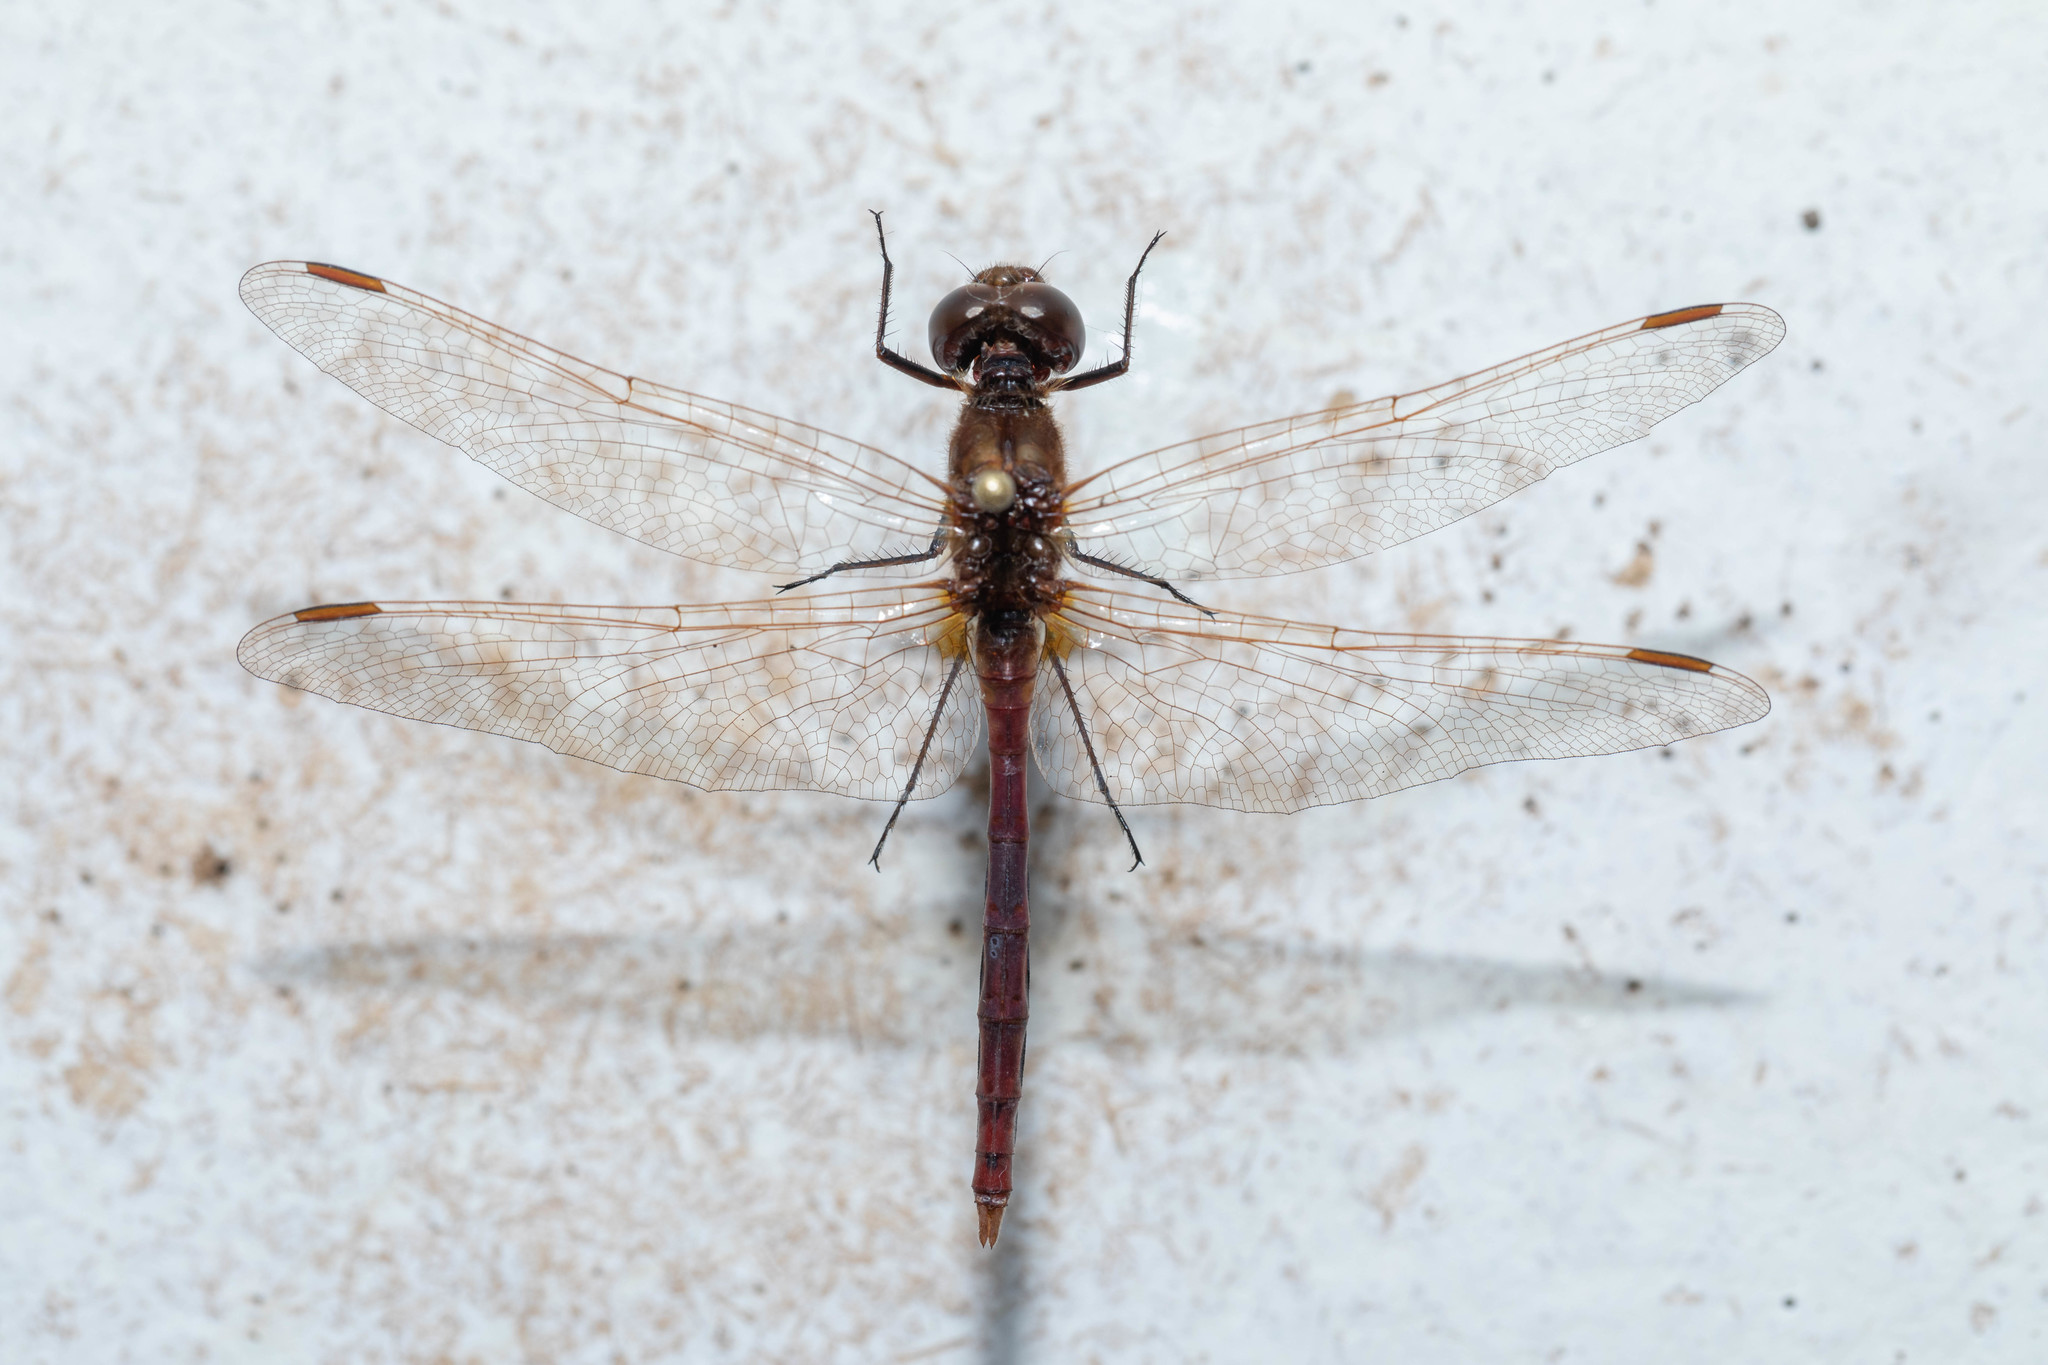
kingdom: Animalia
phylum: Arthropoda
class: Insecta
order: Odonata
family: Libellulidae
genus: Sympetrum
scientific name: Sympetrum costiferum
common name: Saffron-winged meadowhawk
